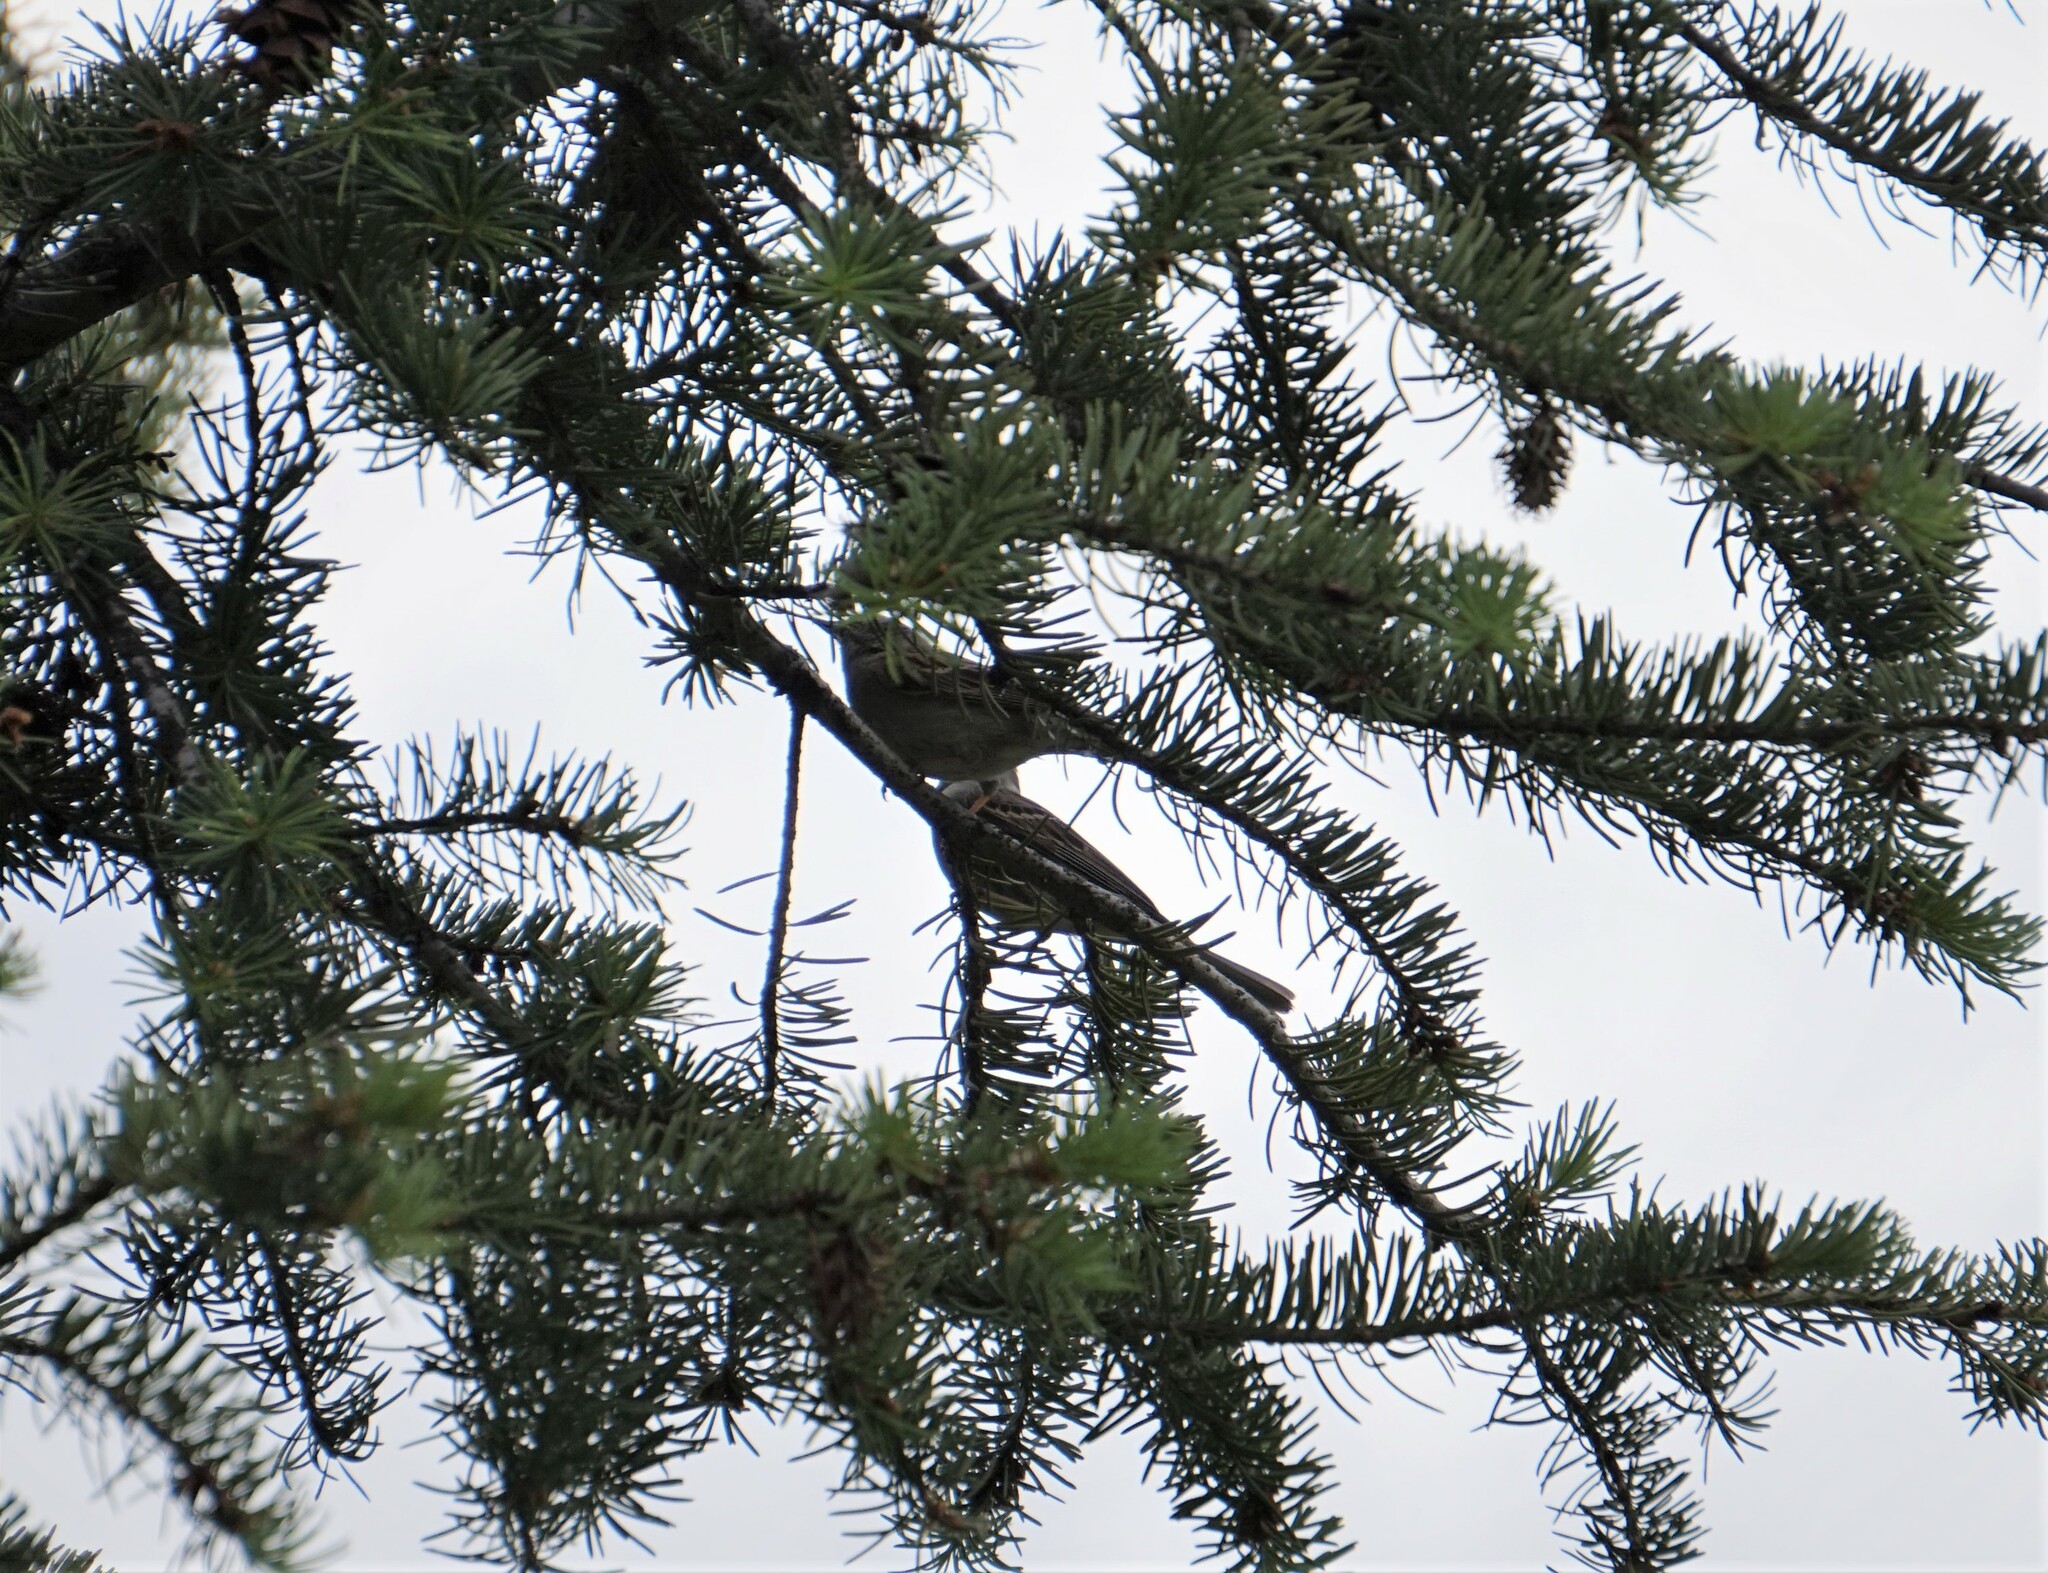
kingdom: Animalia
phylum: Chordata
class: Aves
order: Passeriformes
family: Passerellidae
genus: Spizella
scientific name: Spizella passerina
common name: Chipping sparrow
